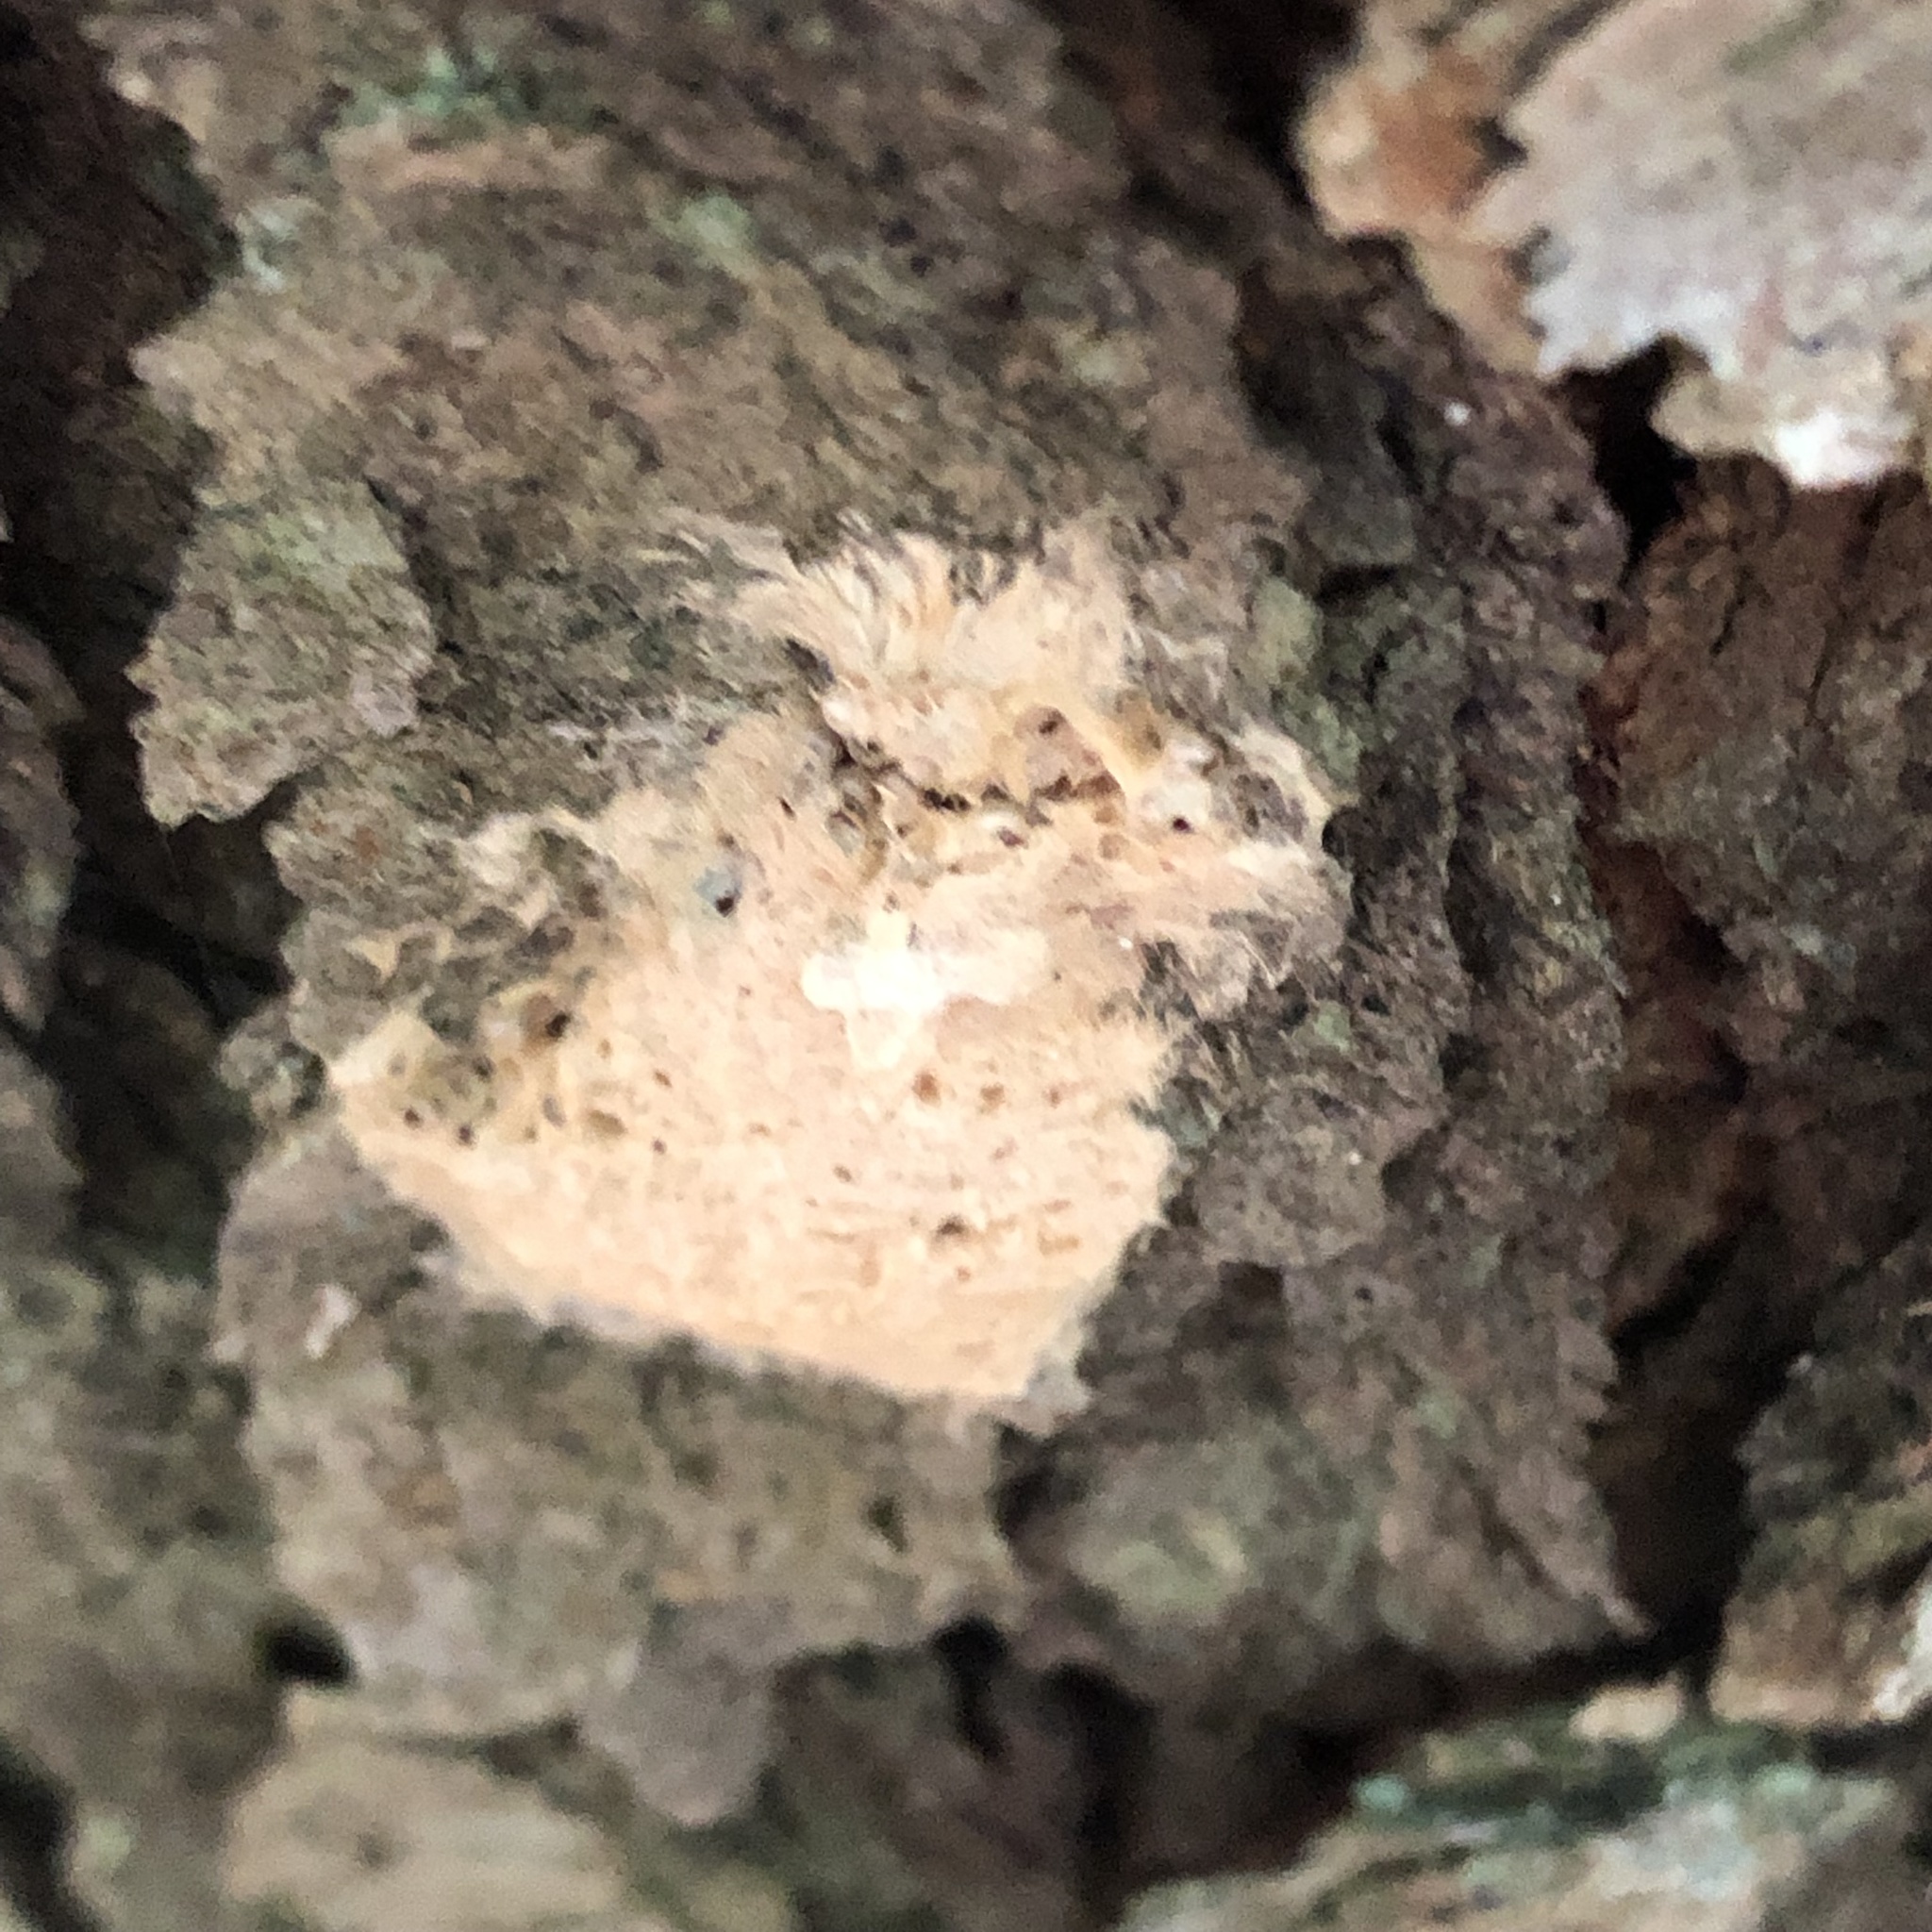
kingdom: Animalia
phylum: Arthropoda
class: Insecta
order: Lepidoptera
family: Erebidae
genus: Lymantria
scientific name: Lymantria dispar
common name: Gypsy moth
